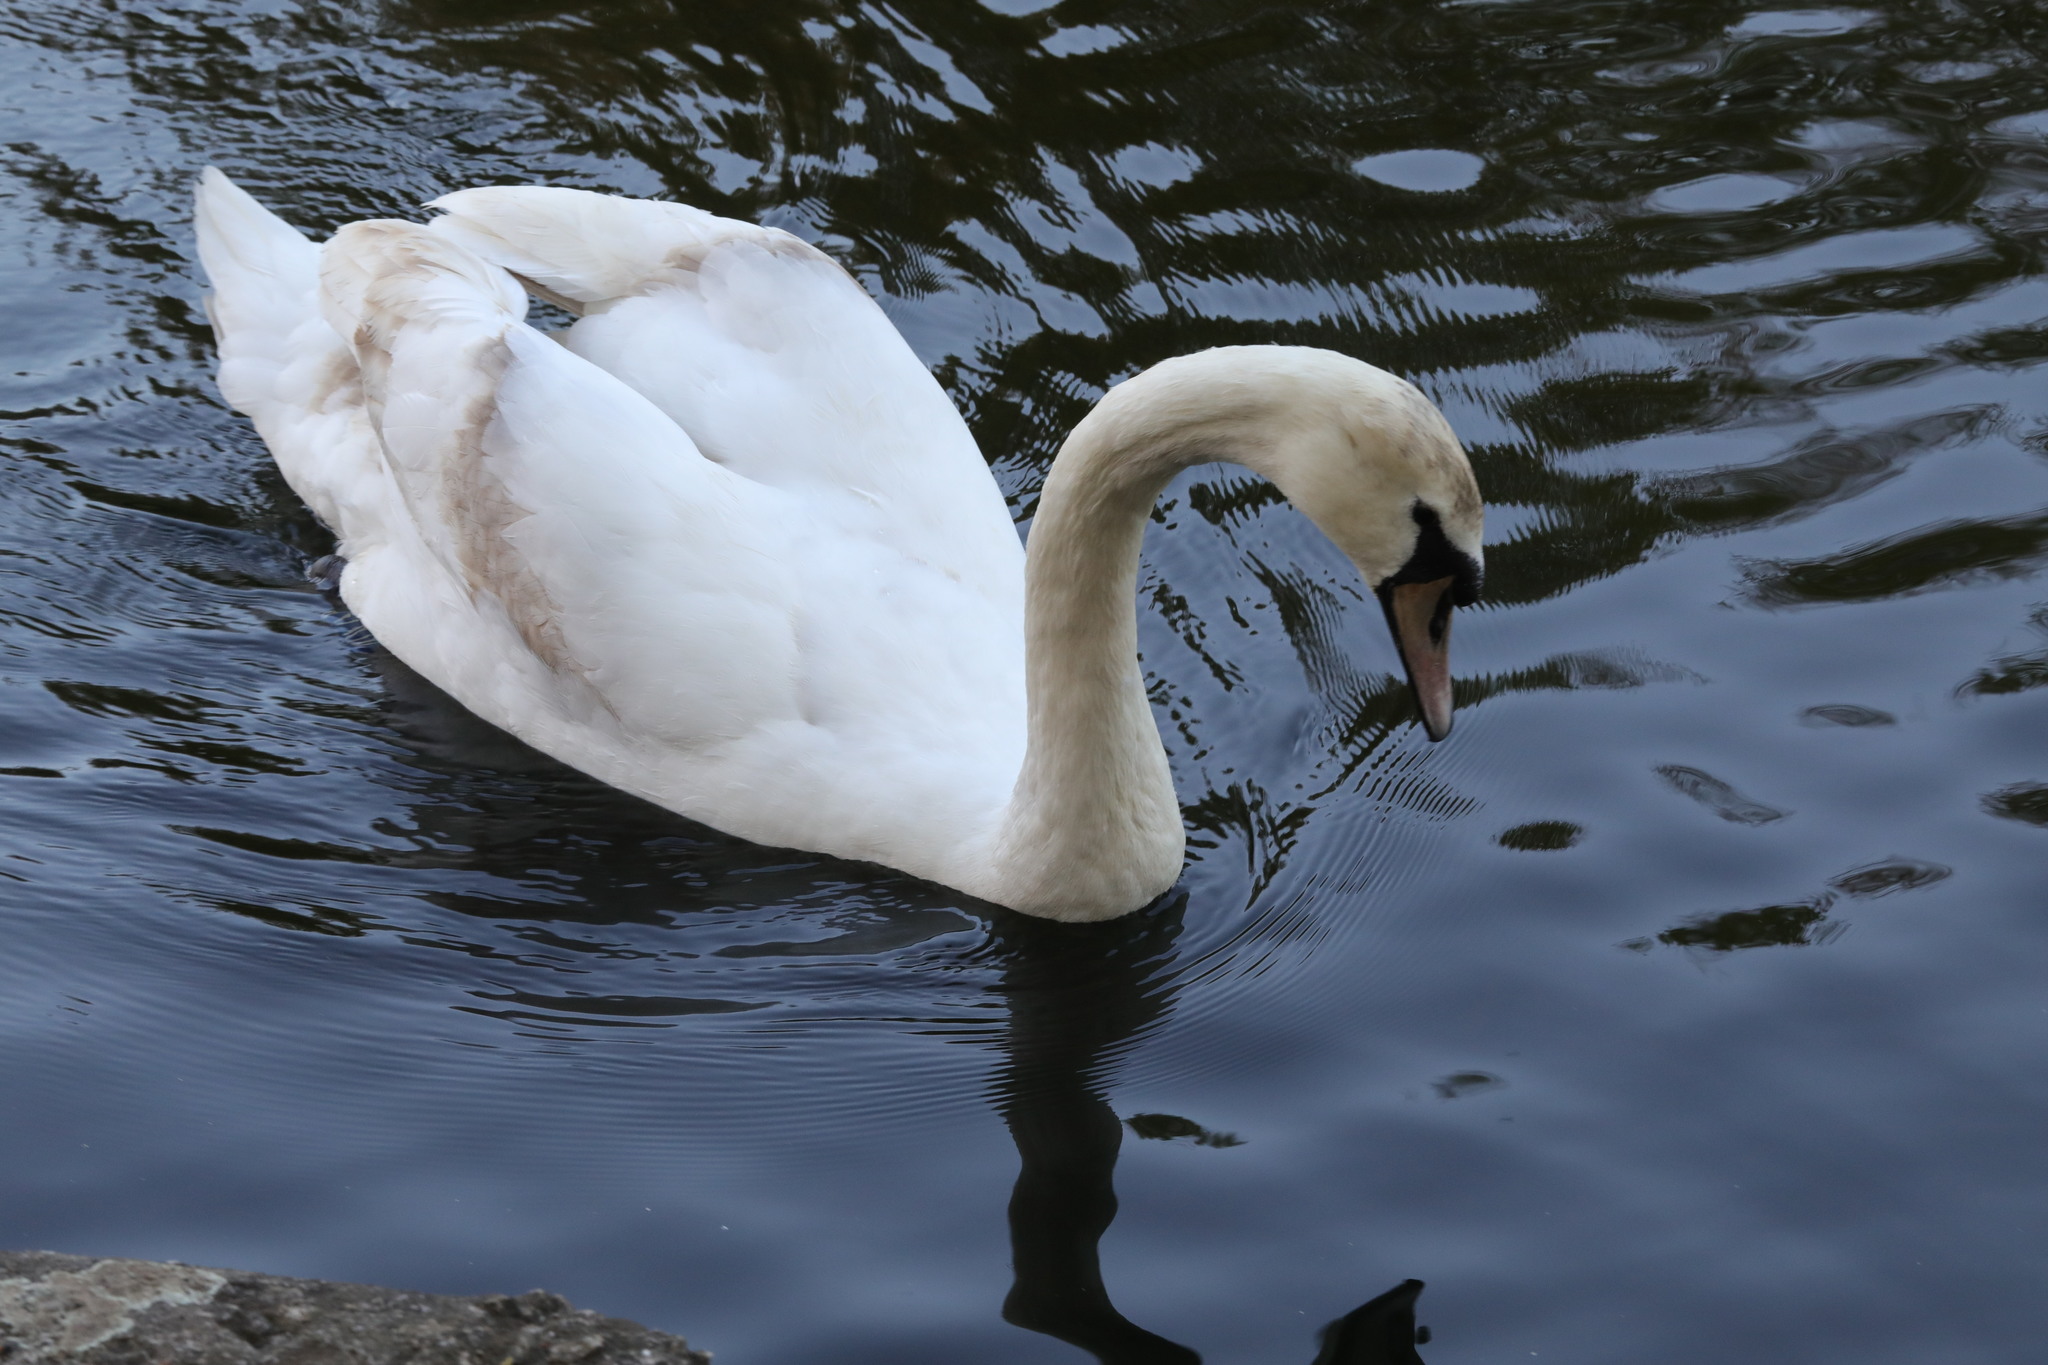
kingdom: Animalia
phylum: Chordata
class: Aves
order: Anseriformes
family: Anatidae
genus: Cygnus
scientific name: Cygnus olor
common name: Mute swan
